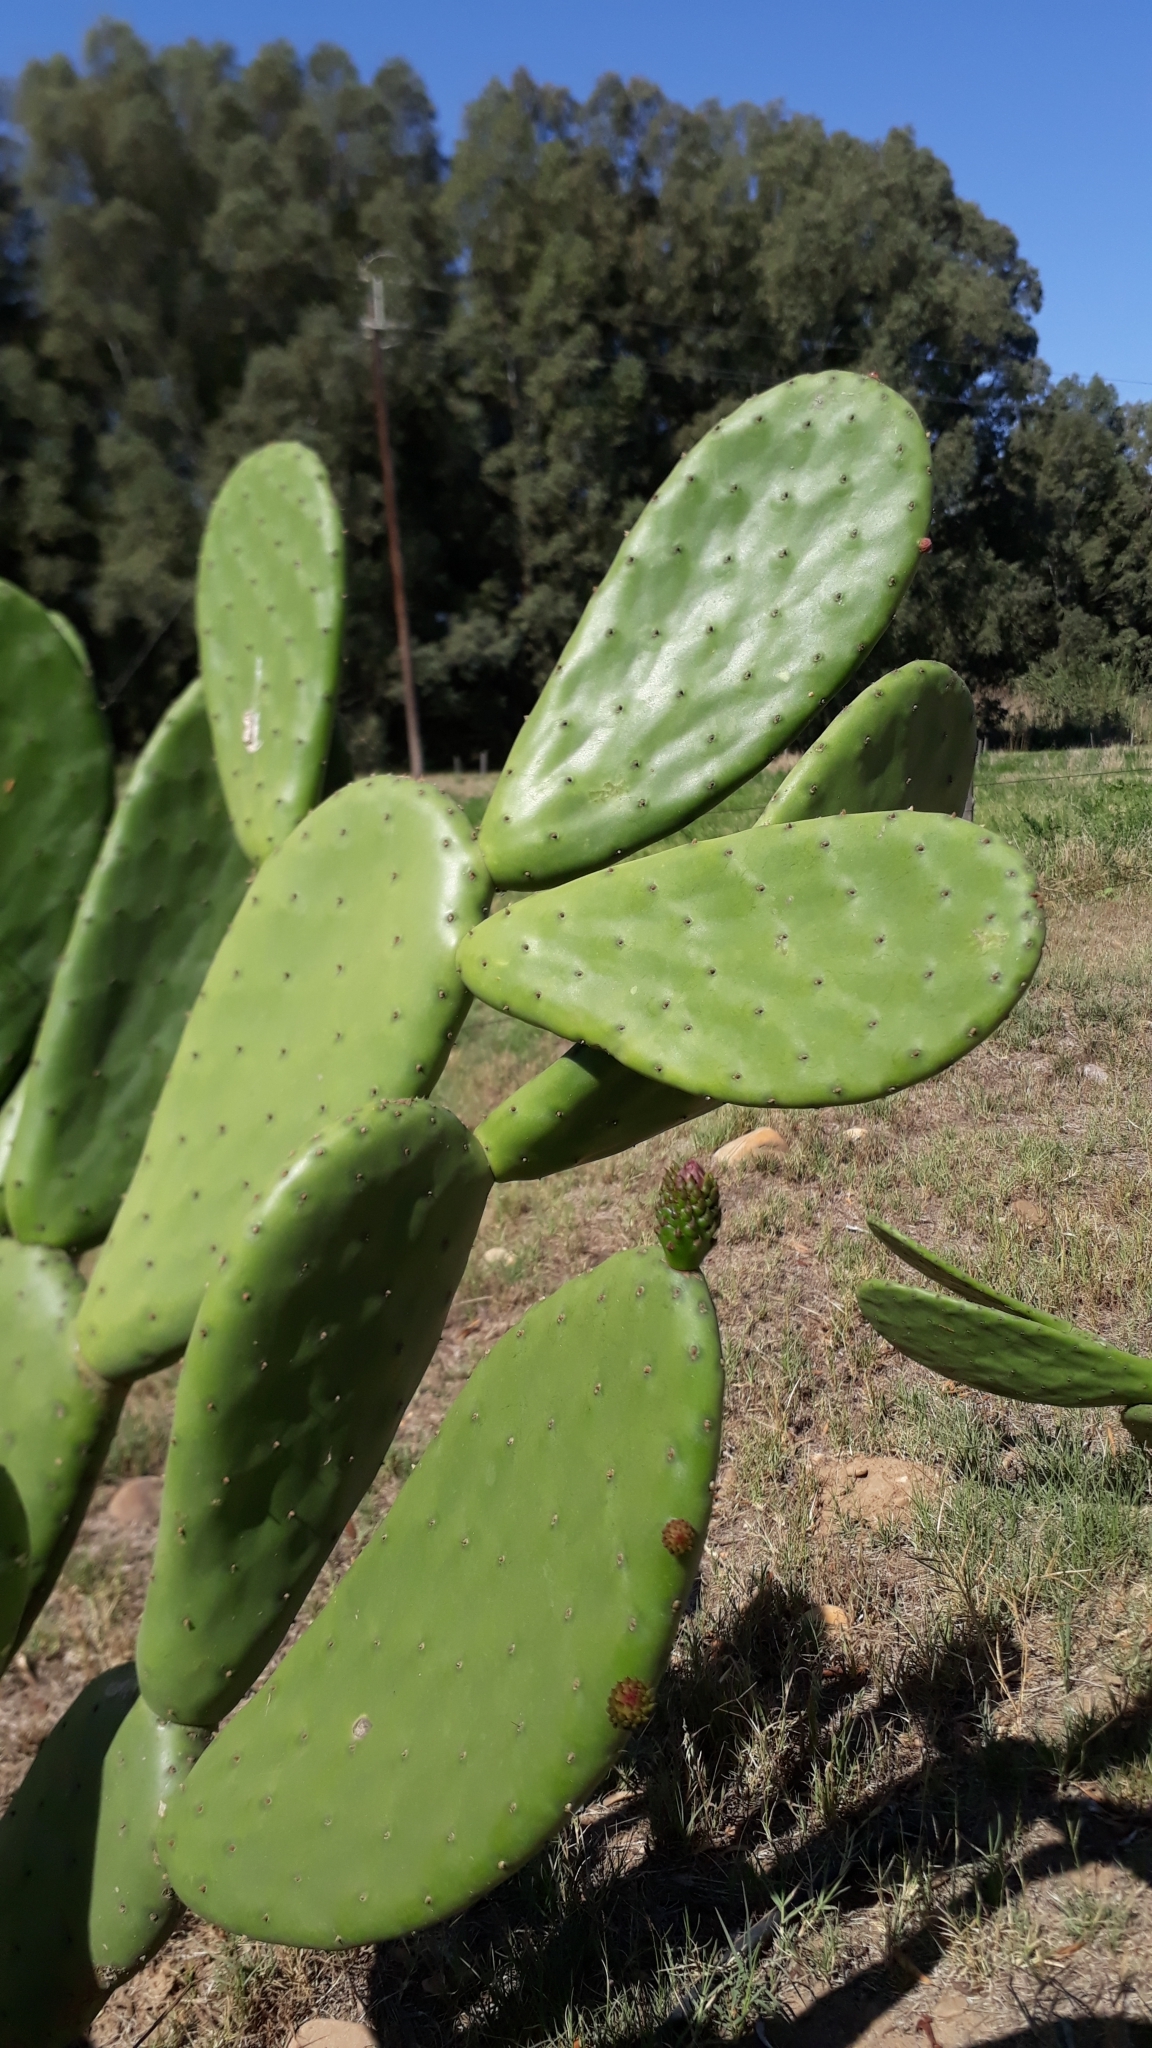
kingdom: Plantae
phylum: Tracheophyta
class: Magnoliopsida
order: Caryophyllales
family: Cactaceae
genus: Opuntia
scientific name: Opuntia ficus-indica
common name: Barbary fig
